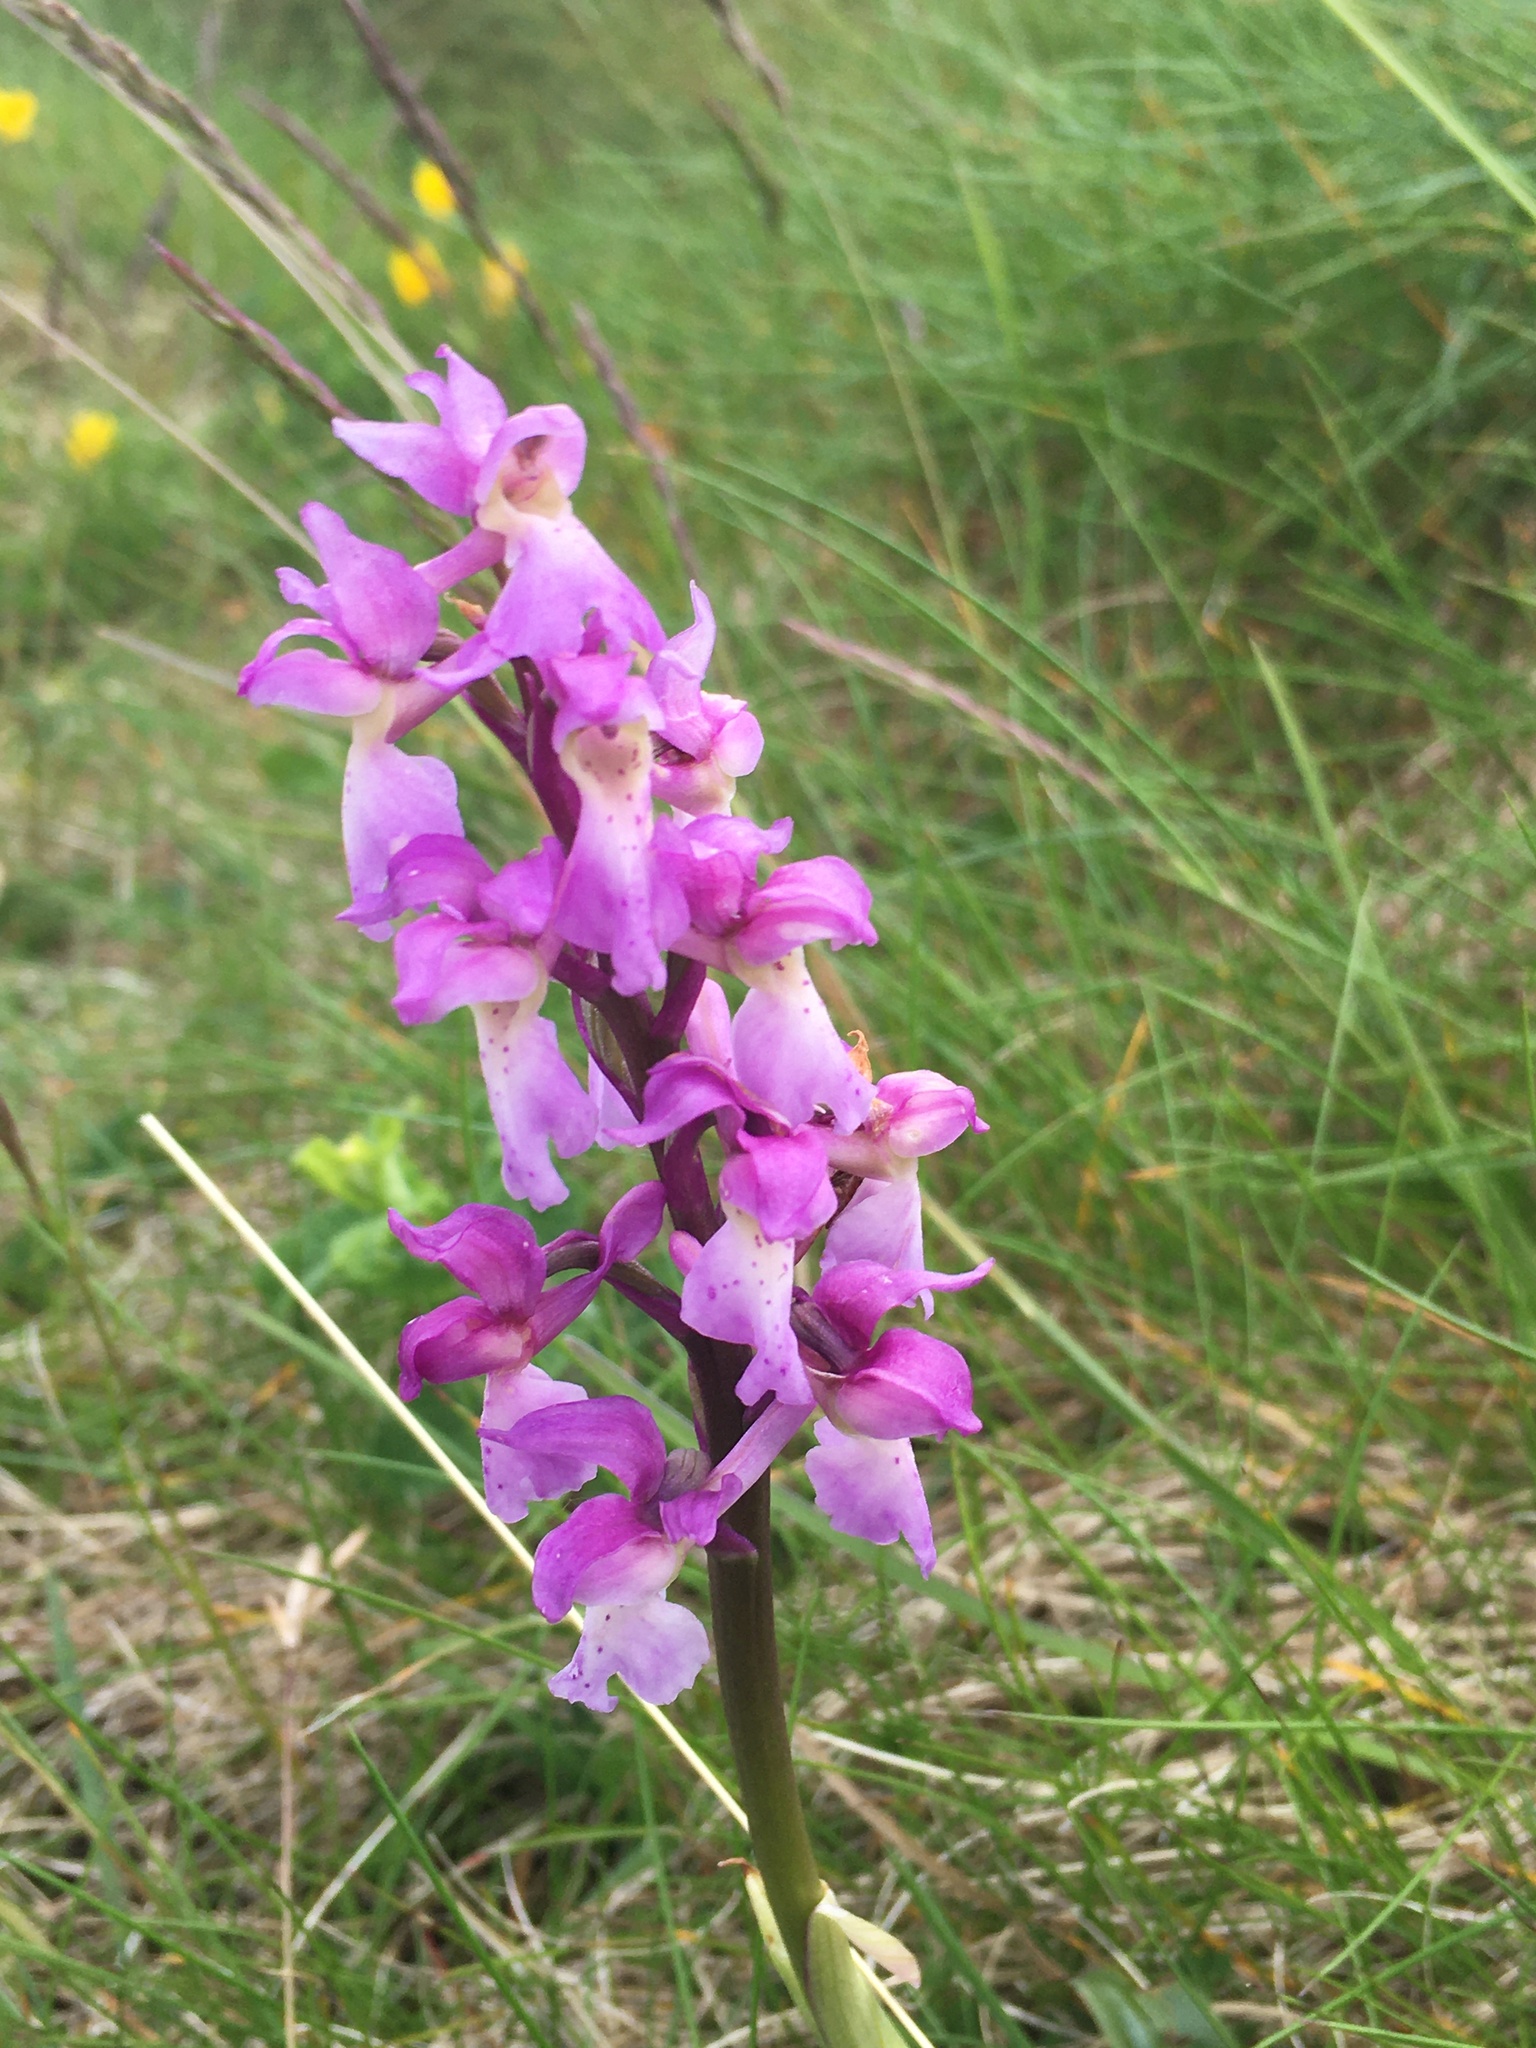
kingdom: Plantae
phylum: Tracheophyta
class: Liliopsida
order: Asparagales
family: Orchidaceae
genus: Orchis
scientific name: Orchis mascula
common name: Early-purple orchid
